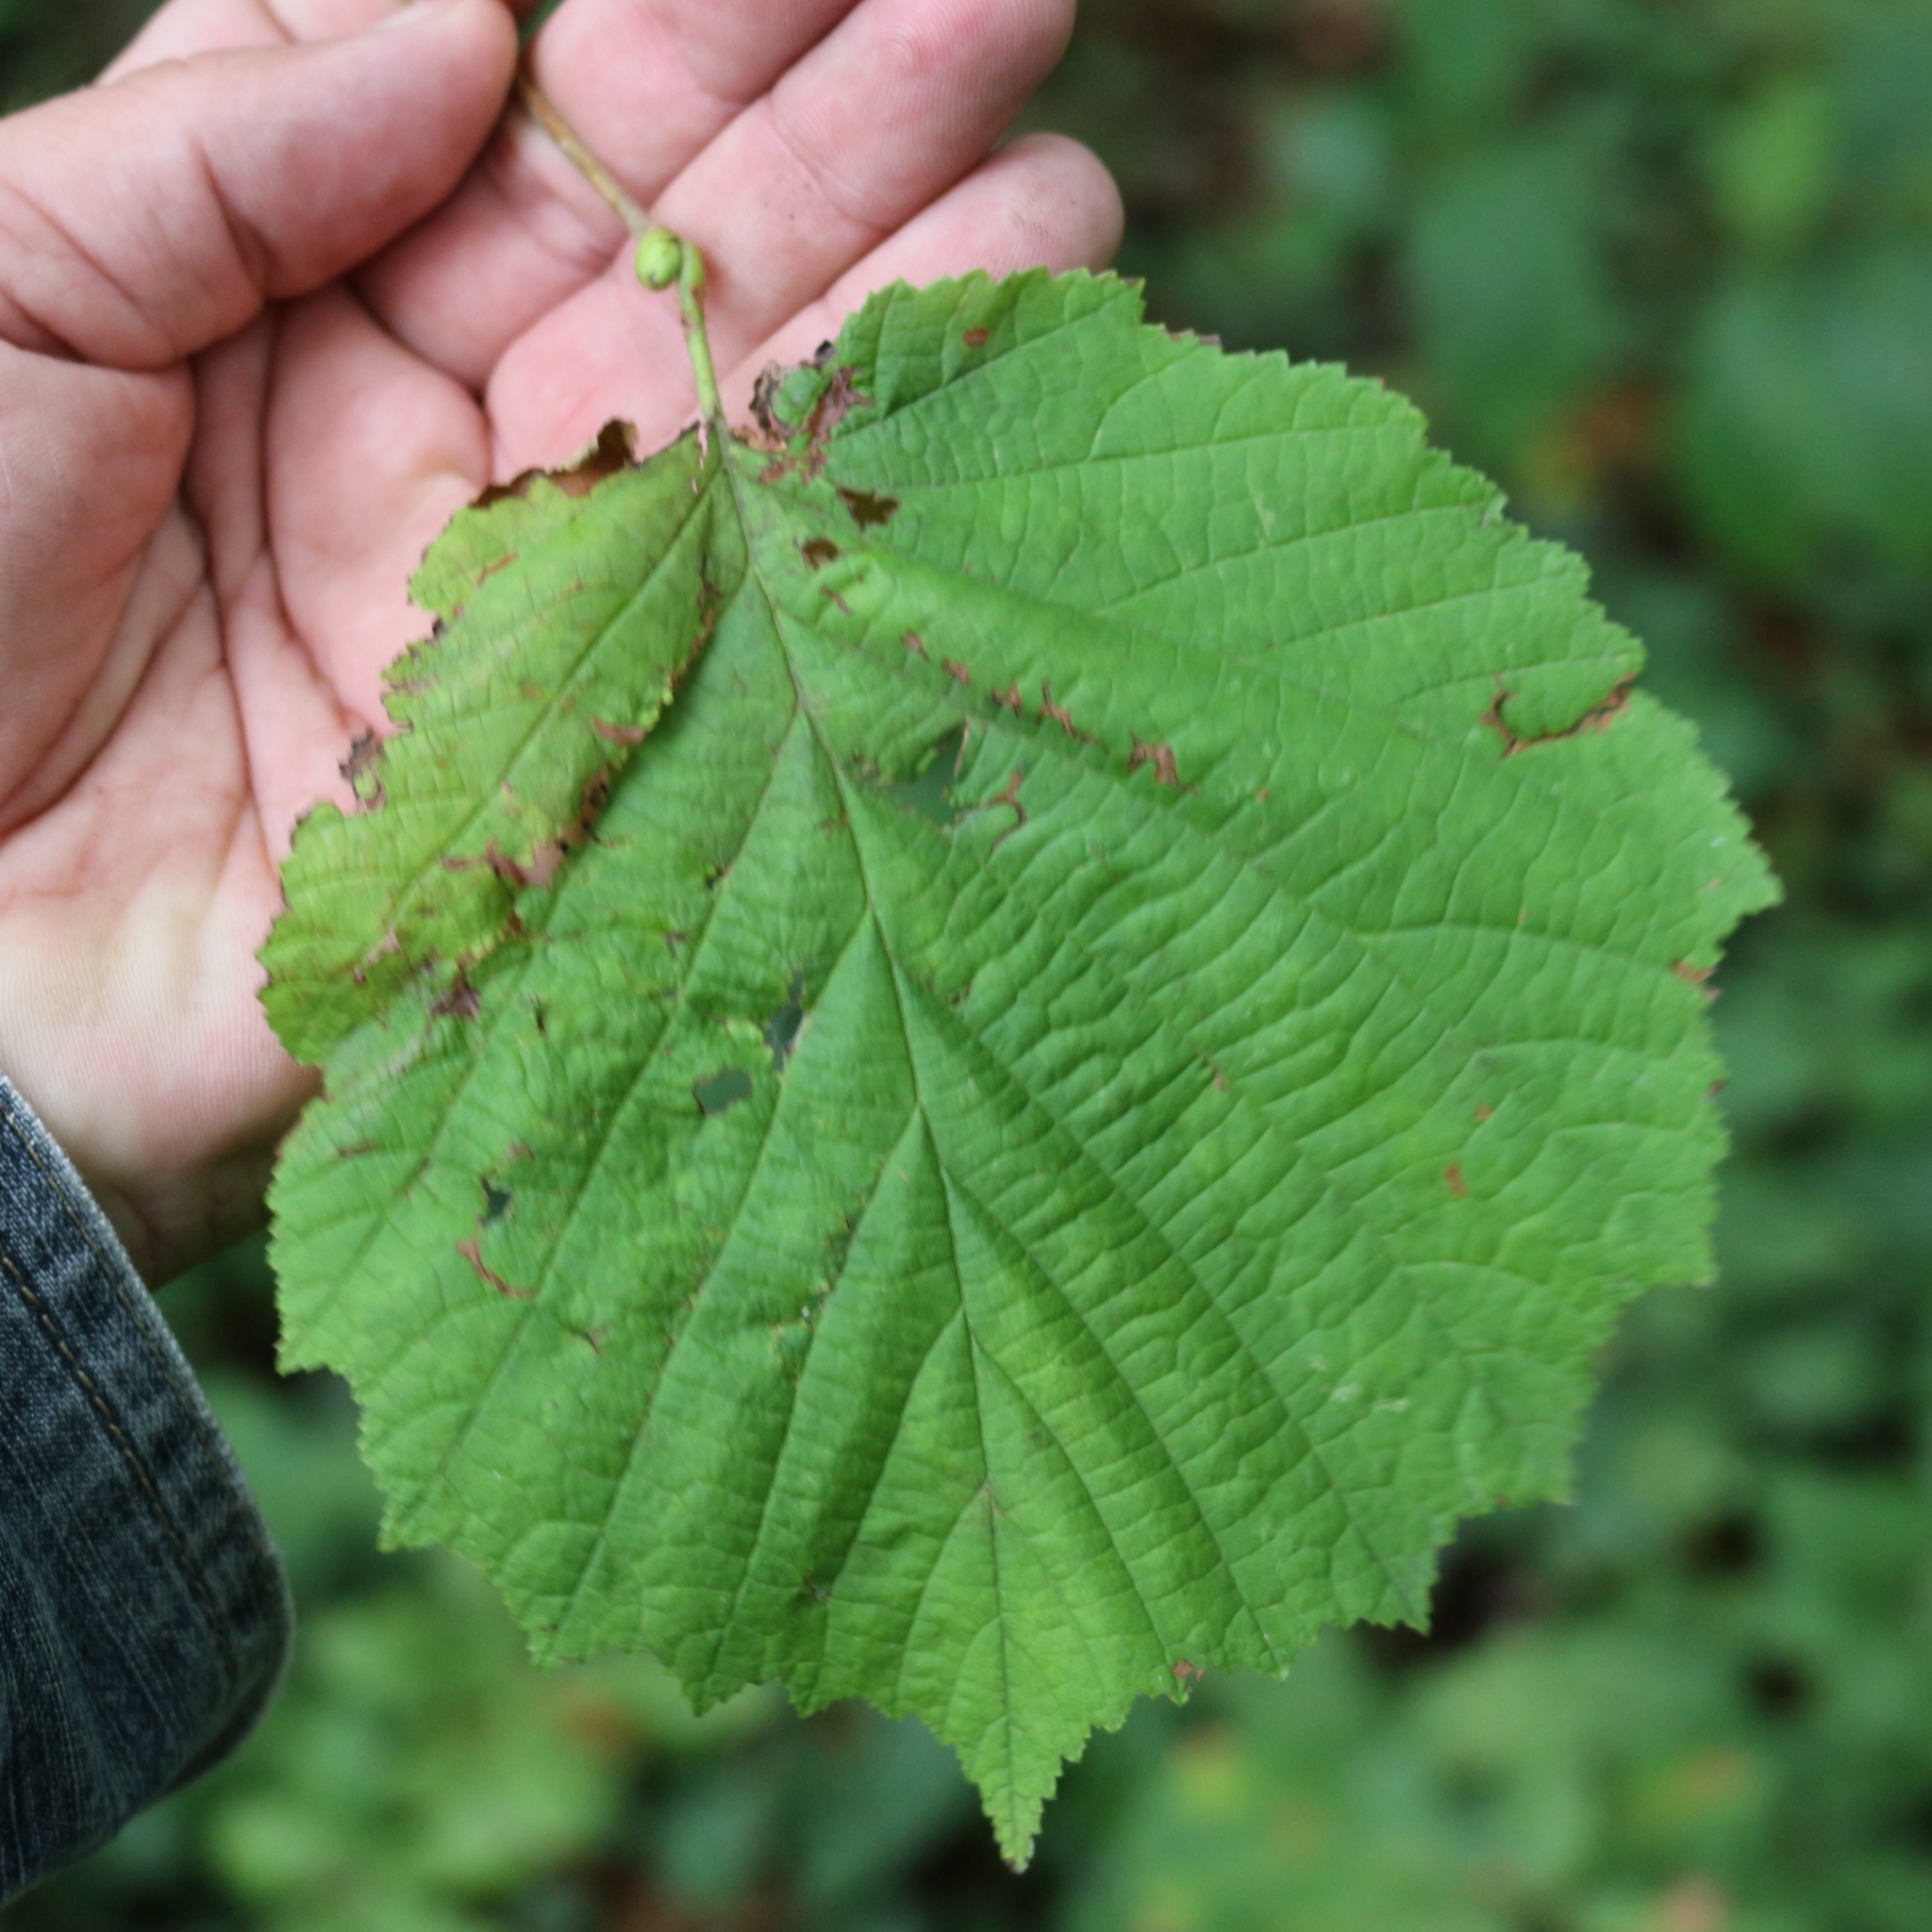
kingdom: Plantae
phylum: Tracheophyta
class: Magnoliopsida
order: Fagales
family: Betulaceae
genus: Corylus
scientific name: Corylus avellana
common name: European hazel
